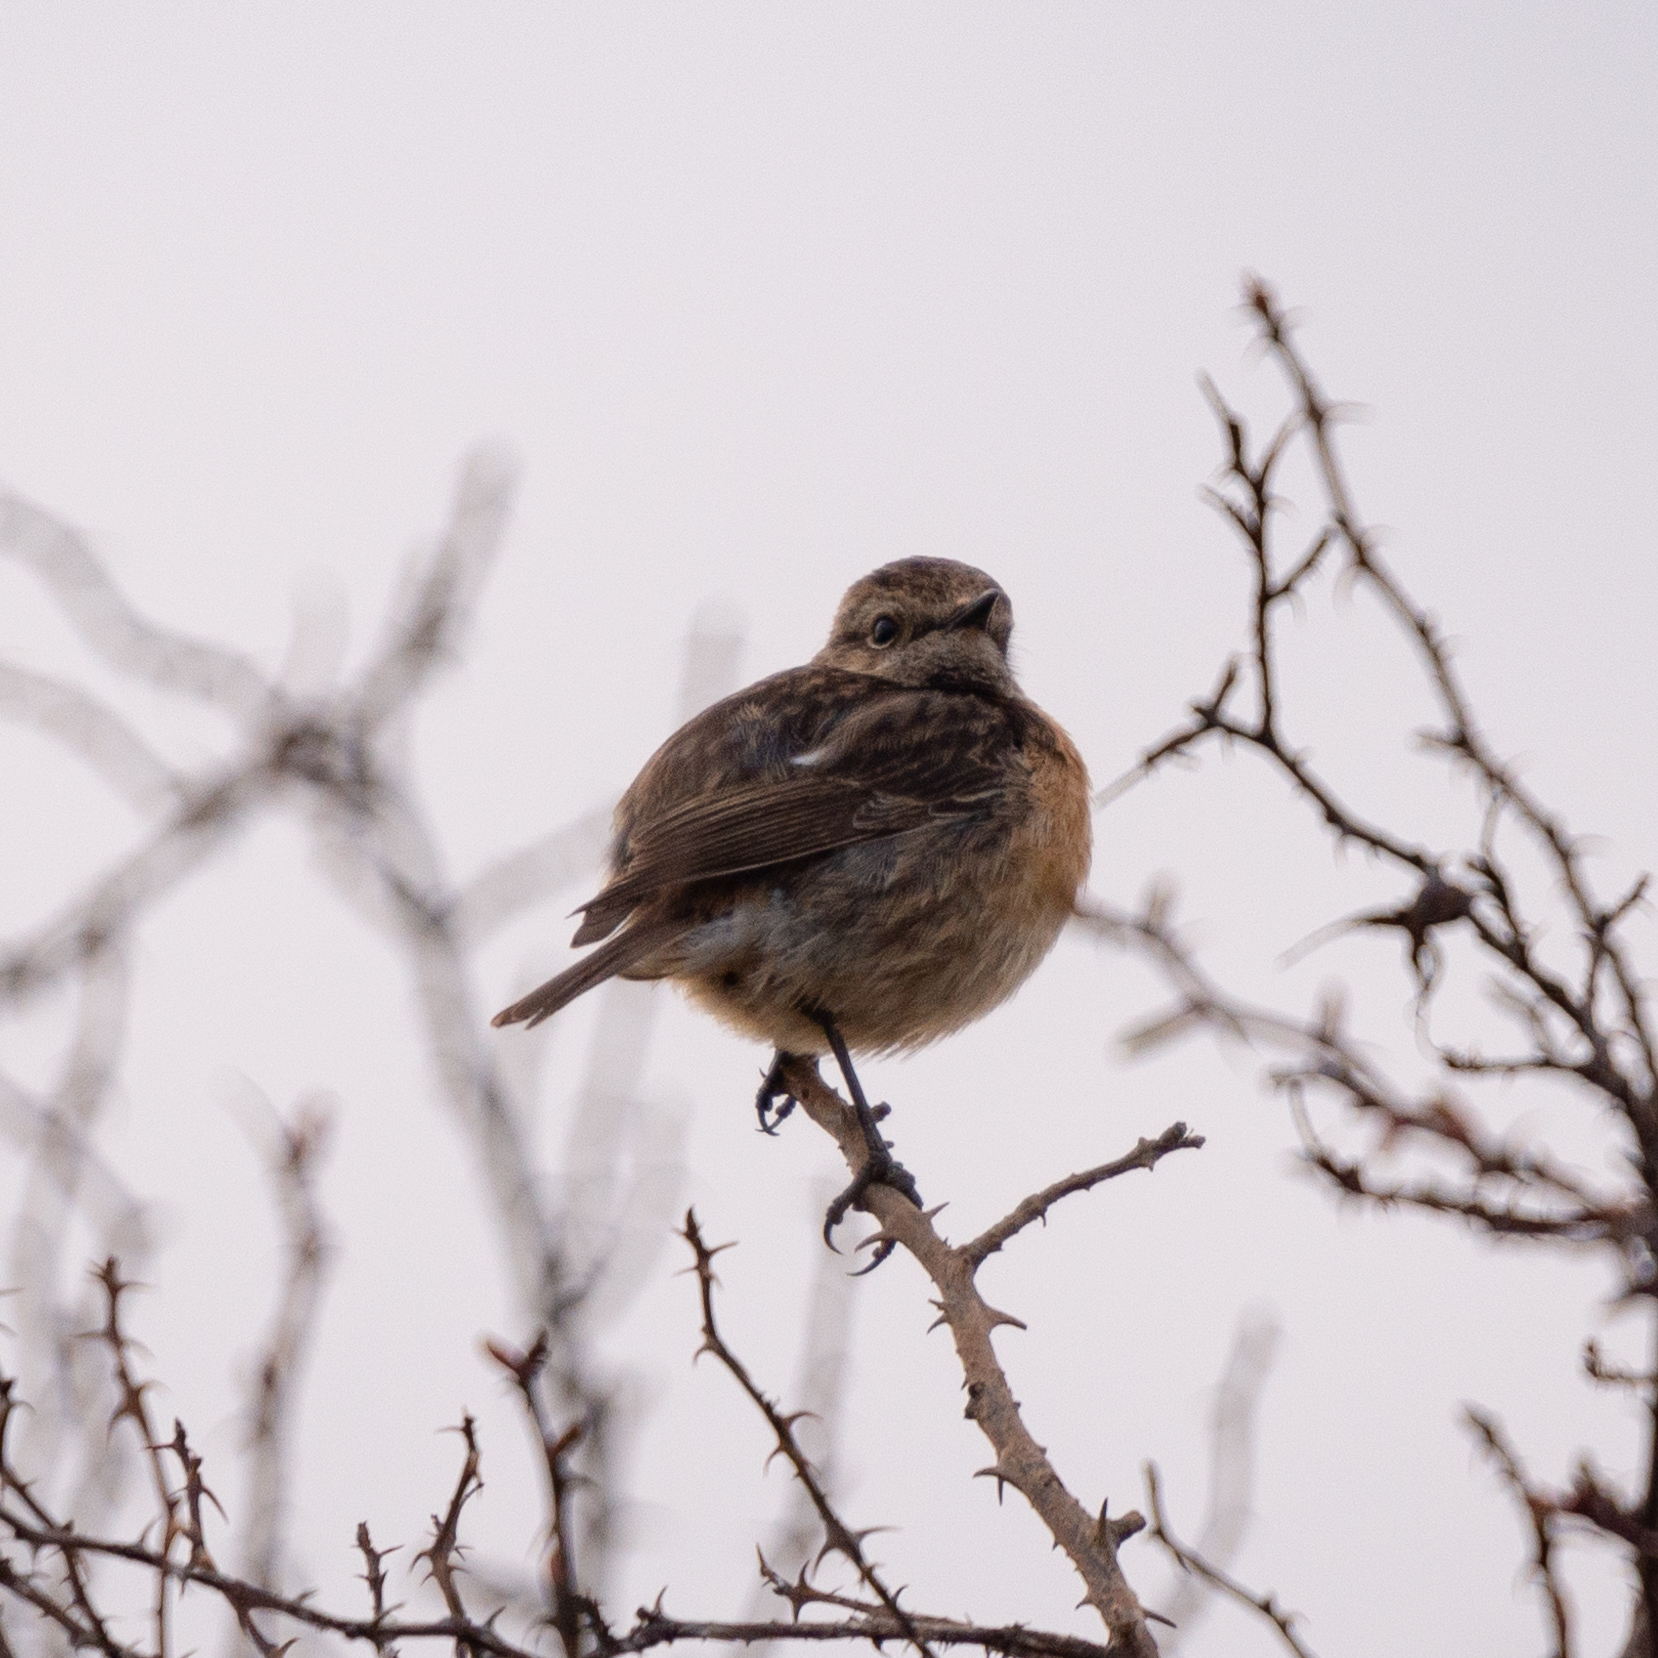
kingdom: Animalia
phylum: Chordata
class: Aves
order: Passeriformes
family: Muscicapidae
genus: Saxicola
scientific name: Saxicola rubicola
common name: European stonechat
